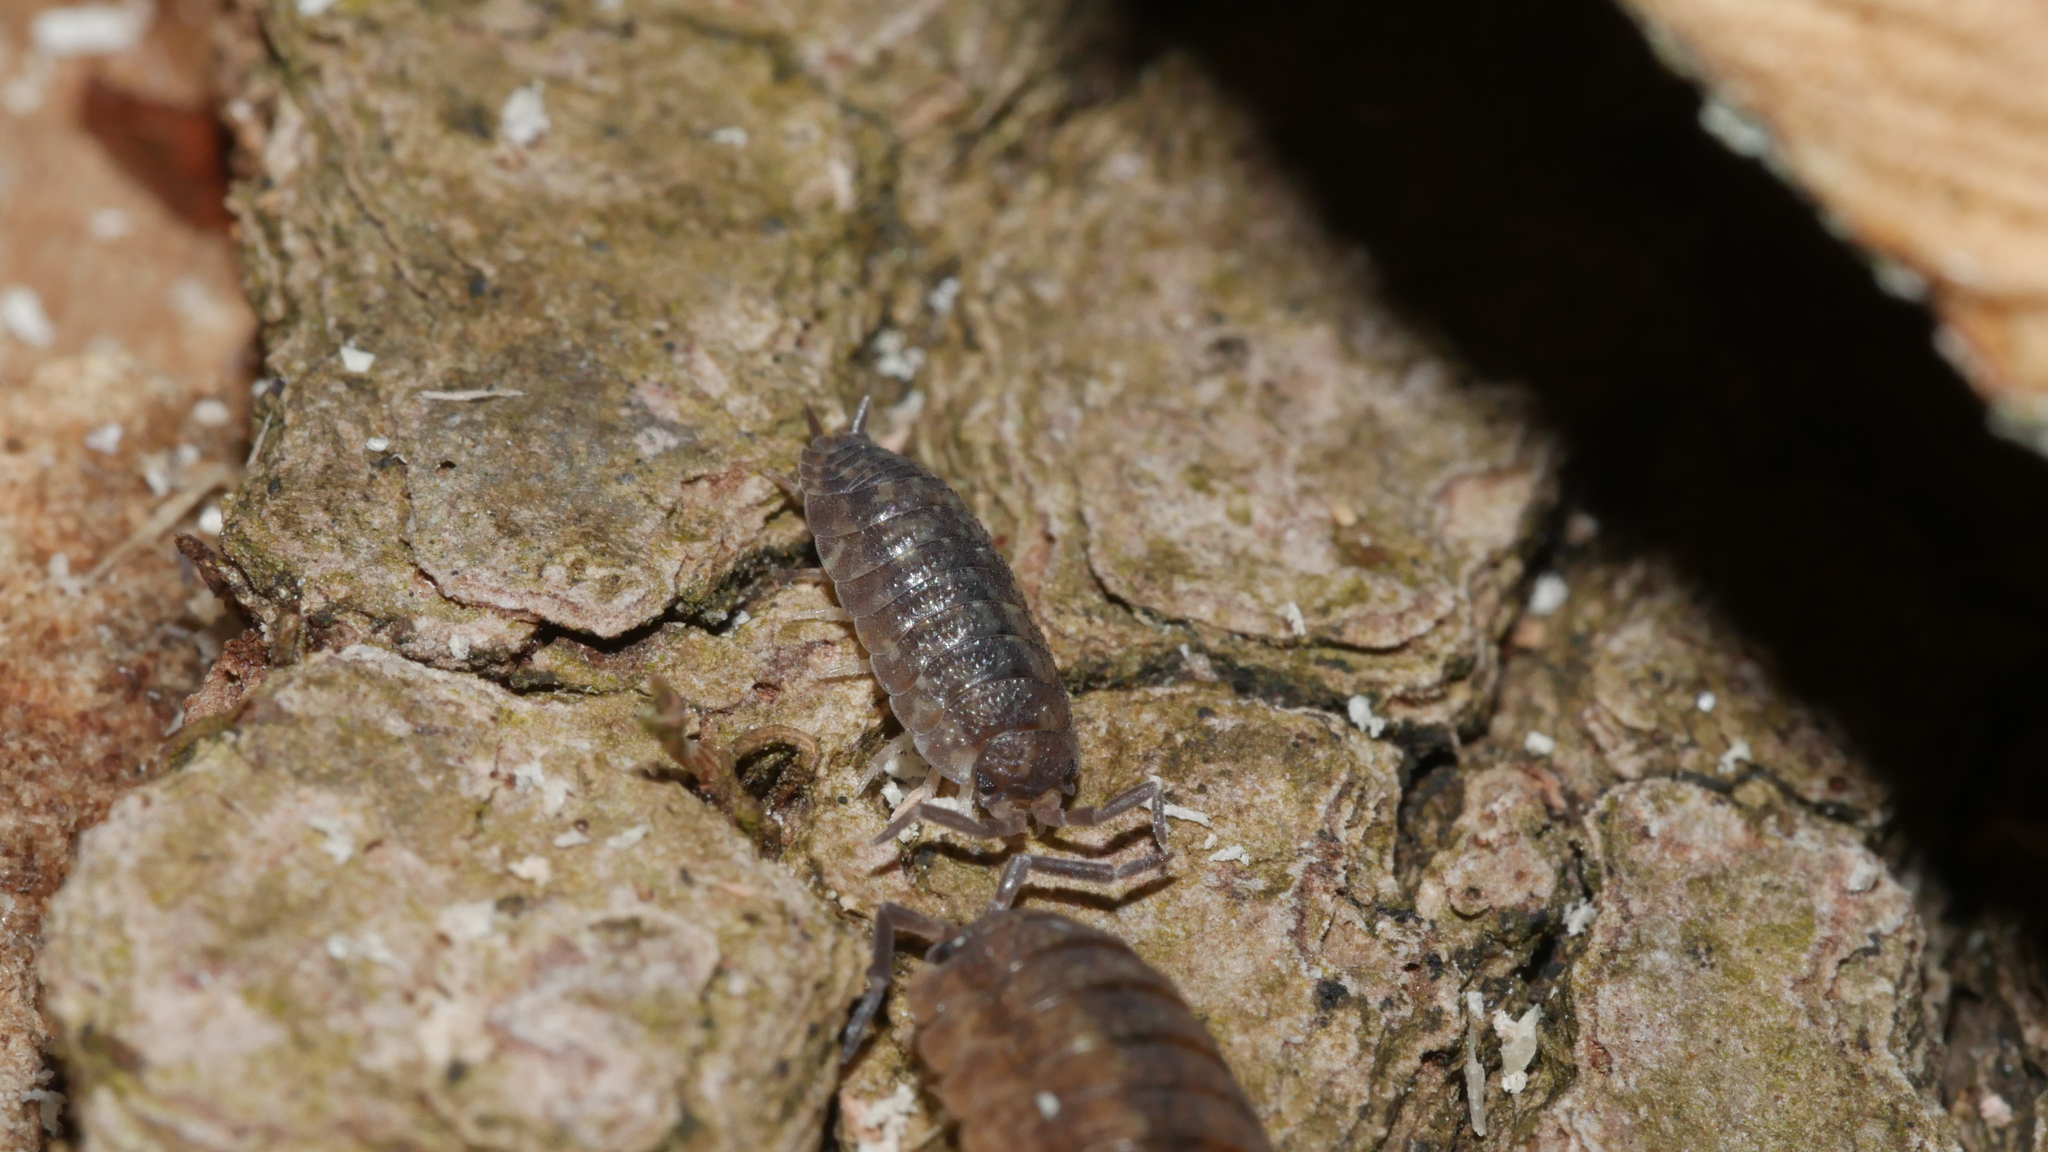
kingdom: Animalia
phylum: Arthropoda
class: Malacostraca
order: Isopoda
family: Porcellionidae
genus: Porcellio
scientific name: Porcellio scaber
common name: Common rough woodlouse
